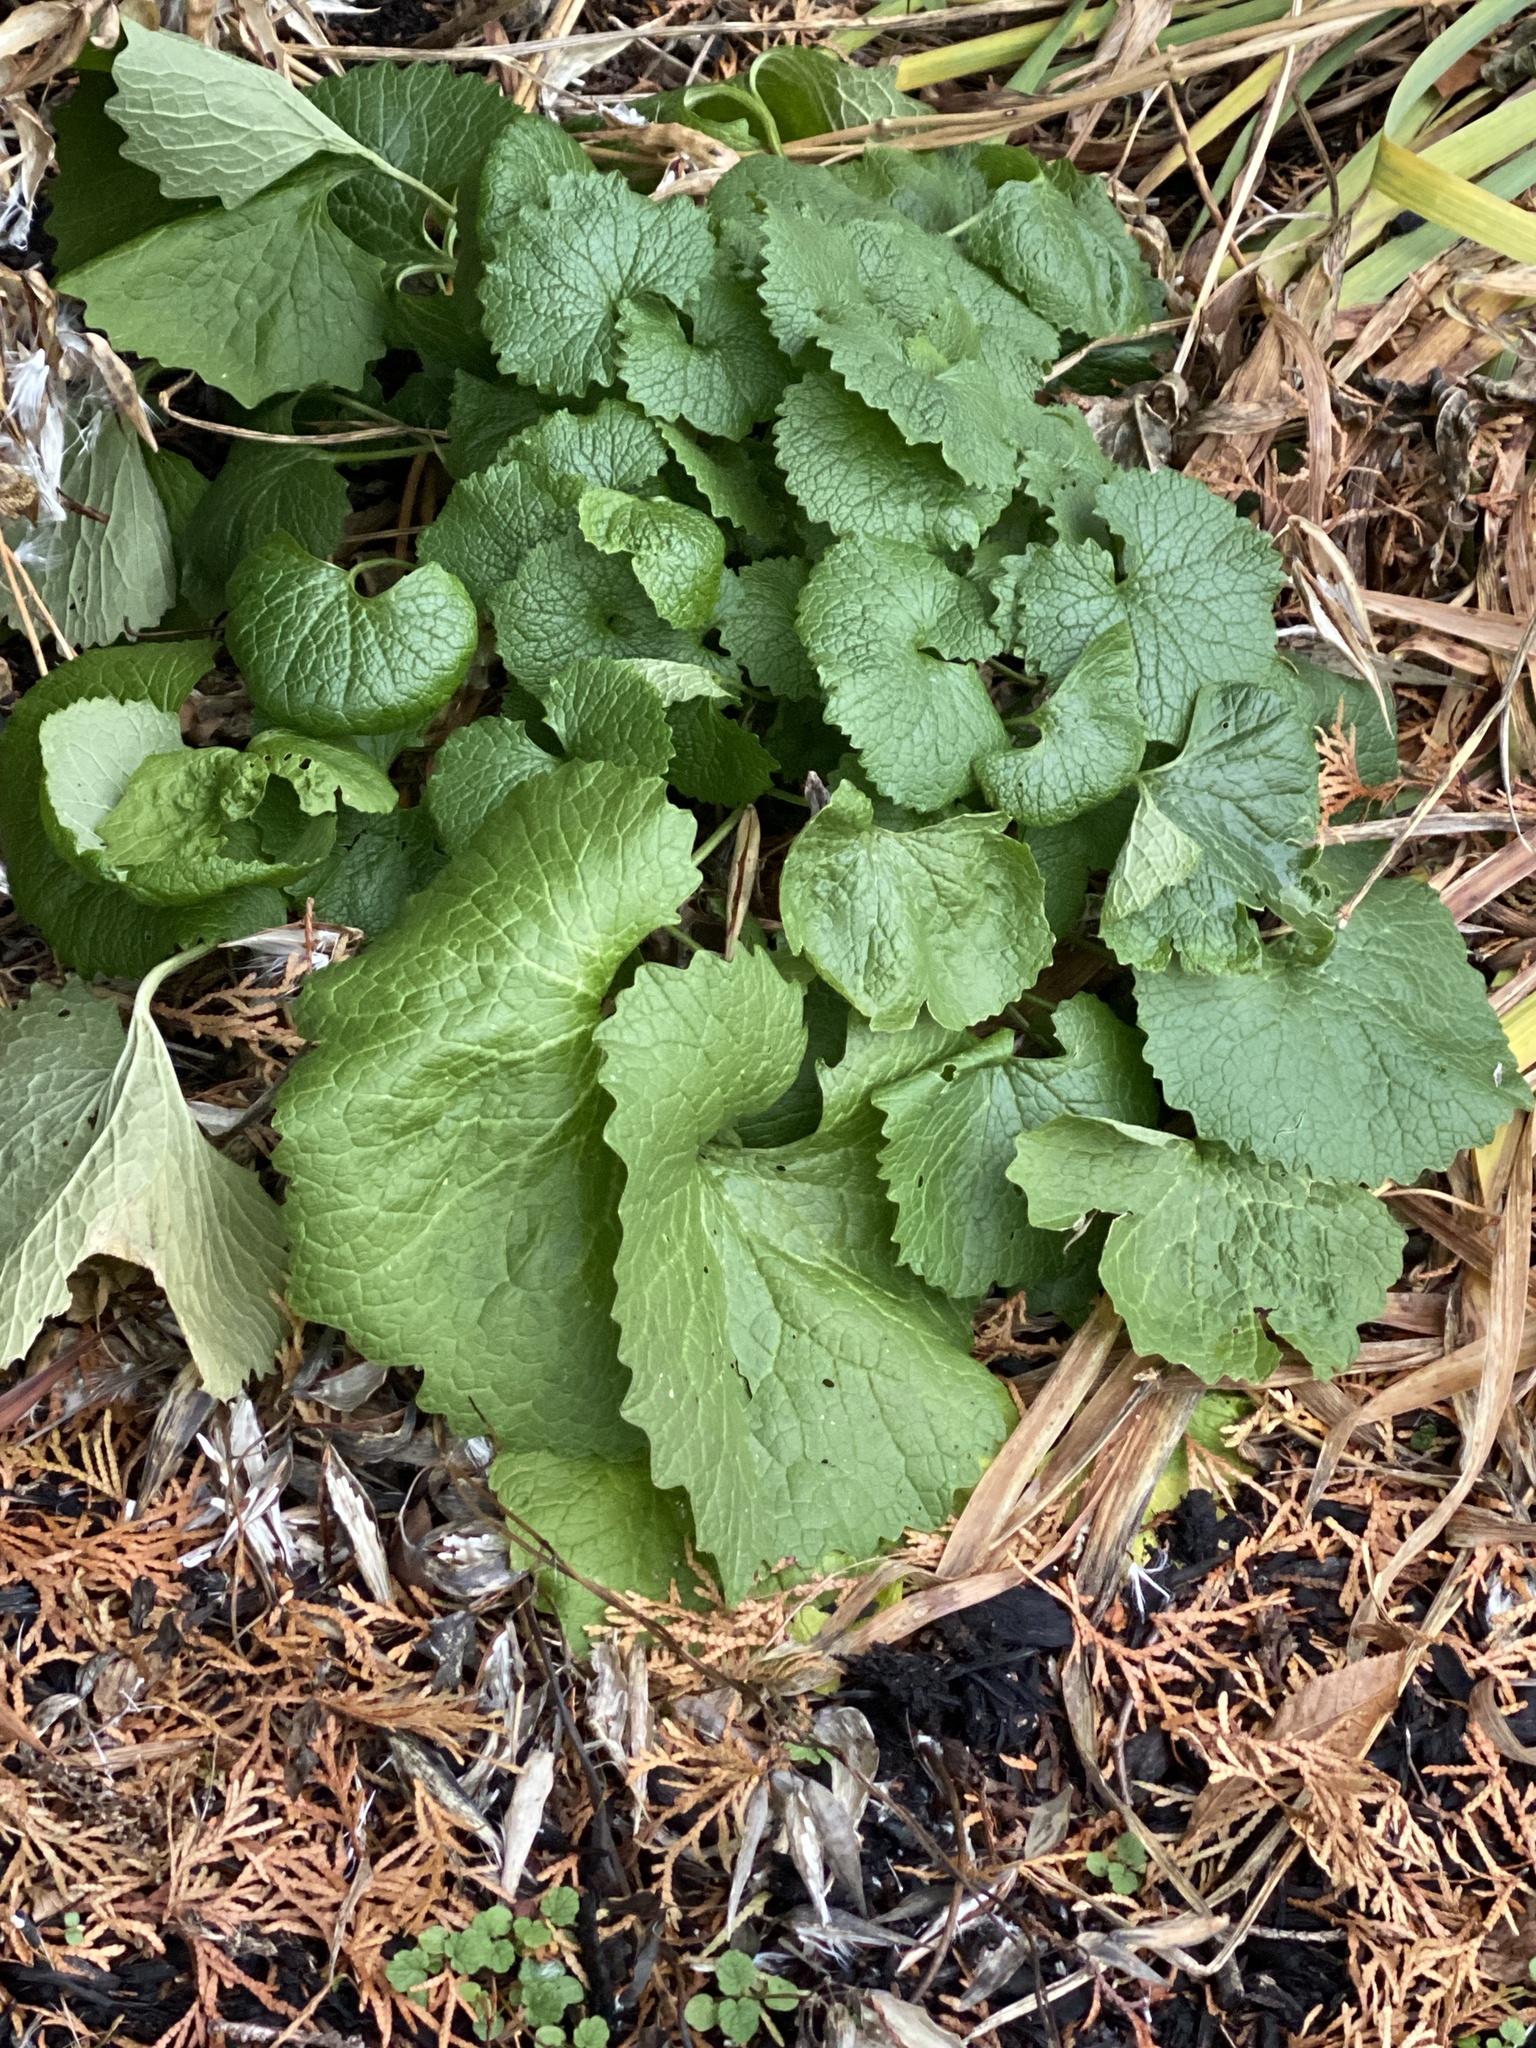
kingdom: Plantae
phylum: Tracheophyta
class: Magnoliopsida
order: Brassicales
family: Brassicaceae
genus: Alliaria
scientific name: Alliaria petiolata
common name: Garlic mustard
